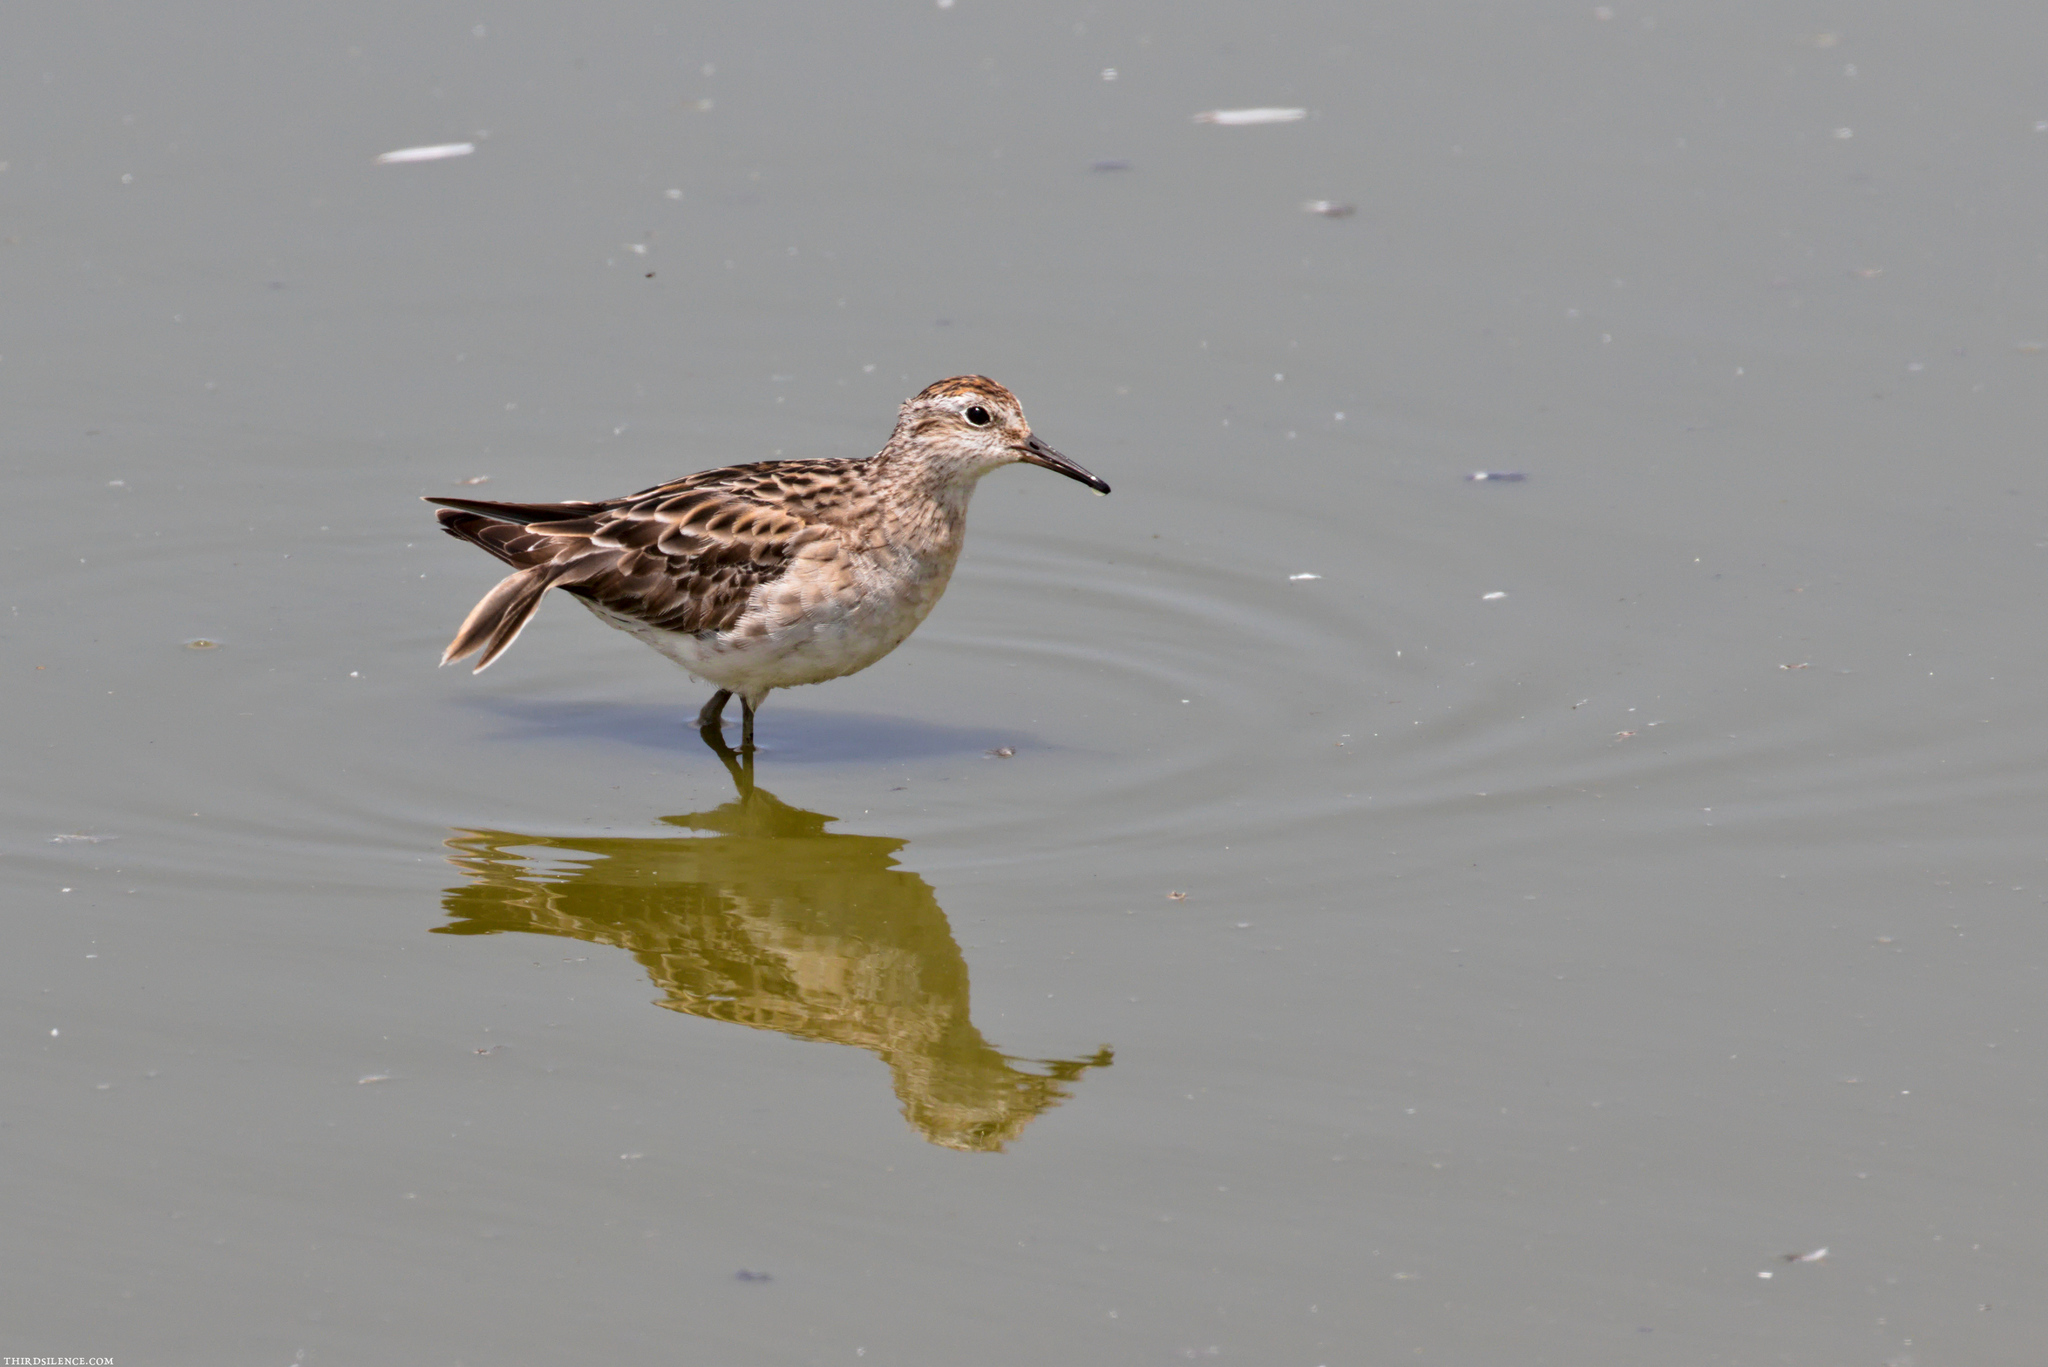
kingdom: Animalia
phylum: Chordata
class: Aves
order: Charadriiformes
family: Scolopacidae
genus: Calidris
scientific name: Calidris acuminata
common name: Sharp-tailed sandpiper
